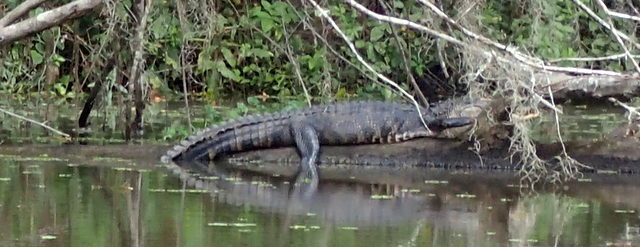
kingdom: Animalia
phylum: Chordata
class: Crocodylia
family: Alligatoridae
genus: Alligator
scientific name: Alligator mississippiensis
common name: American alligator
